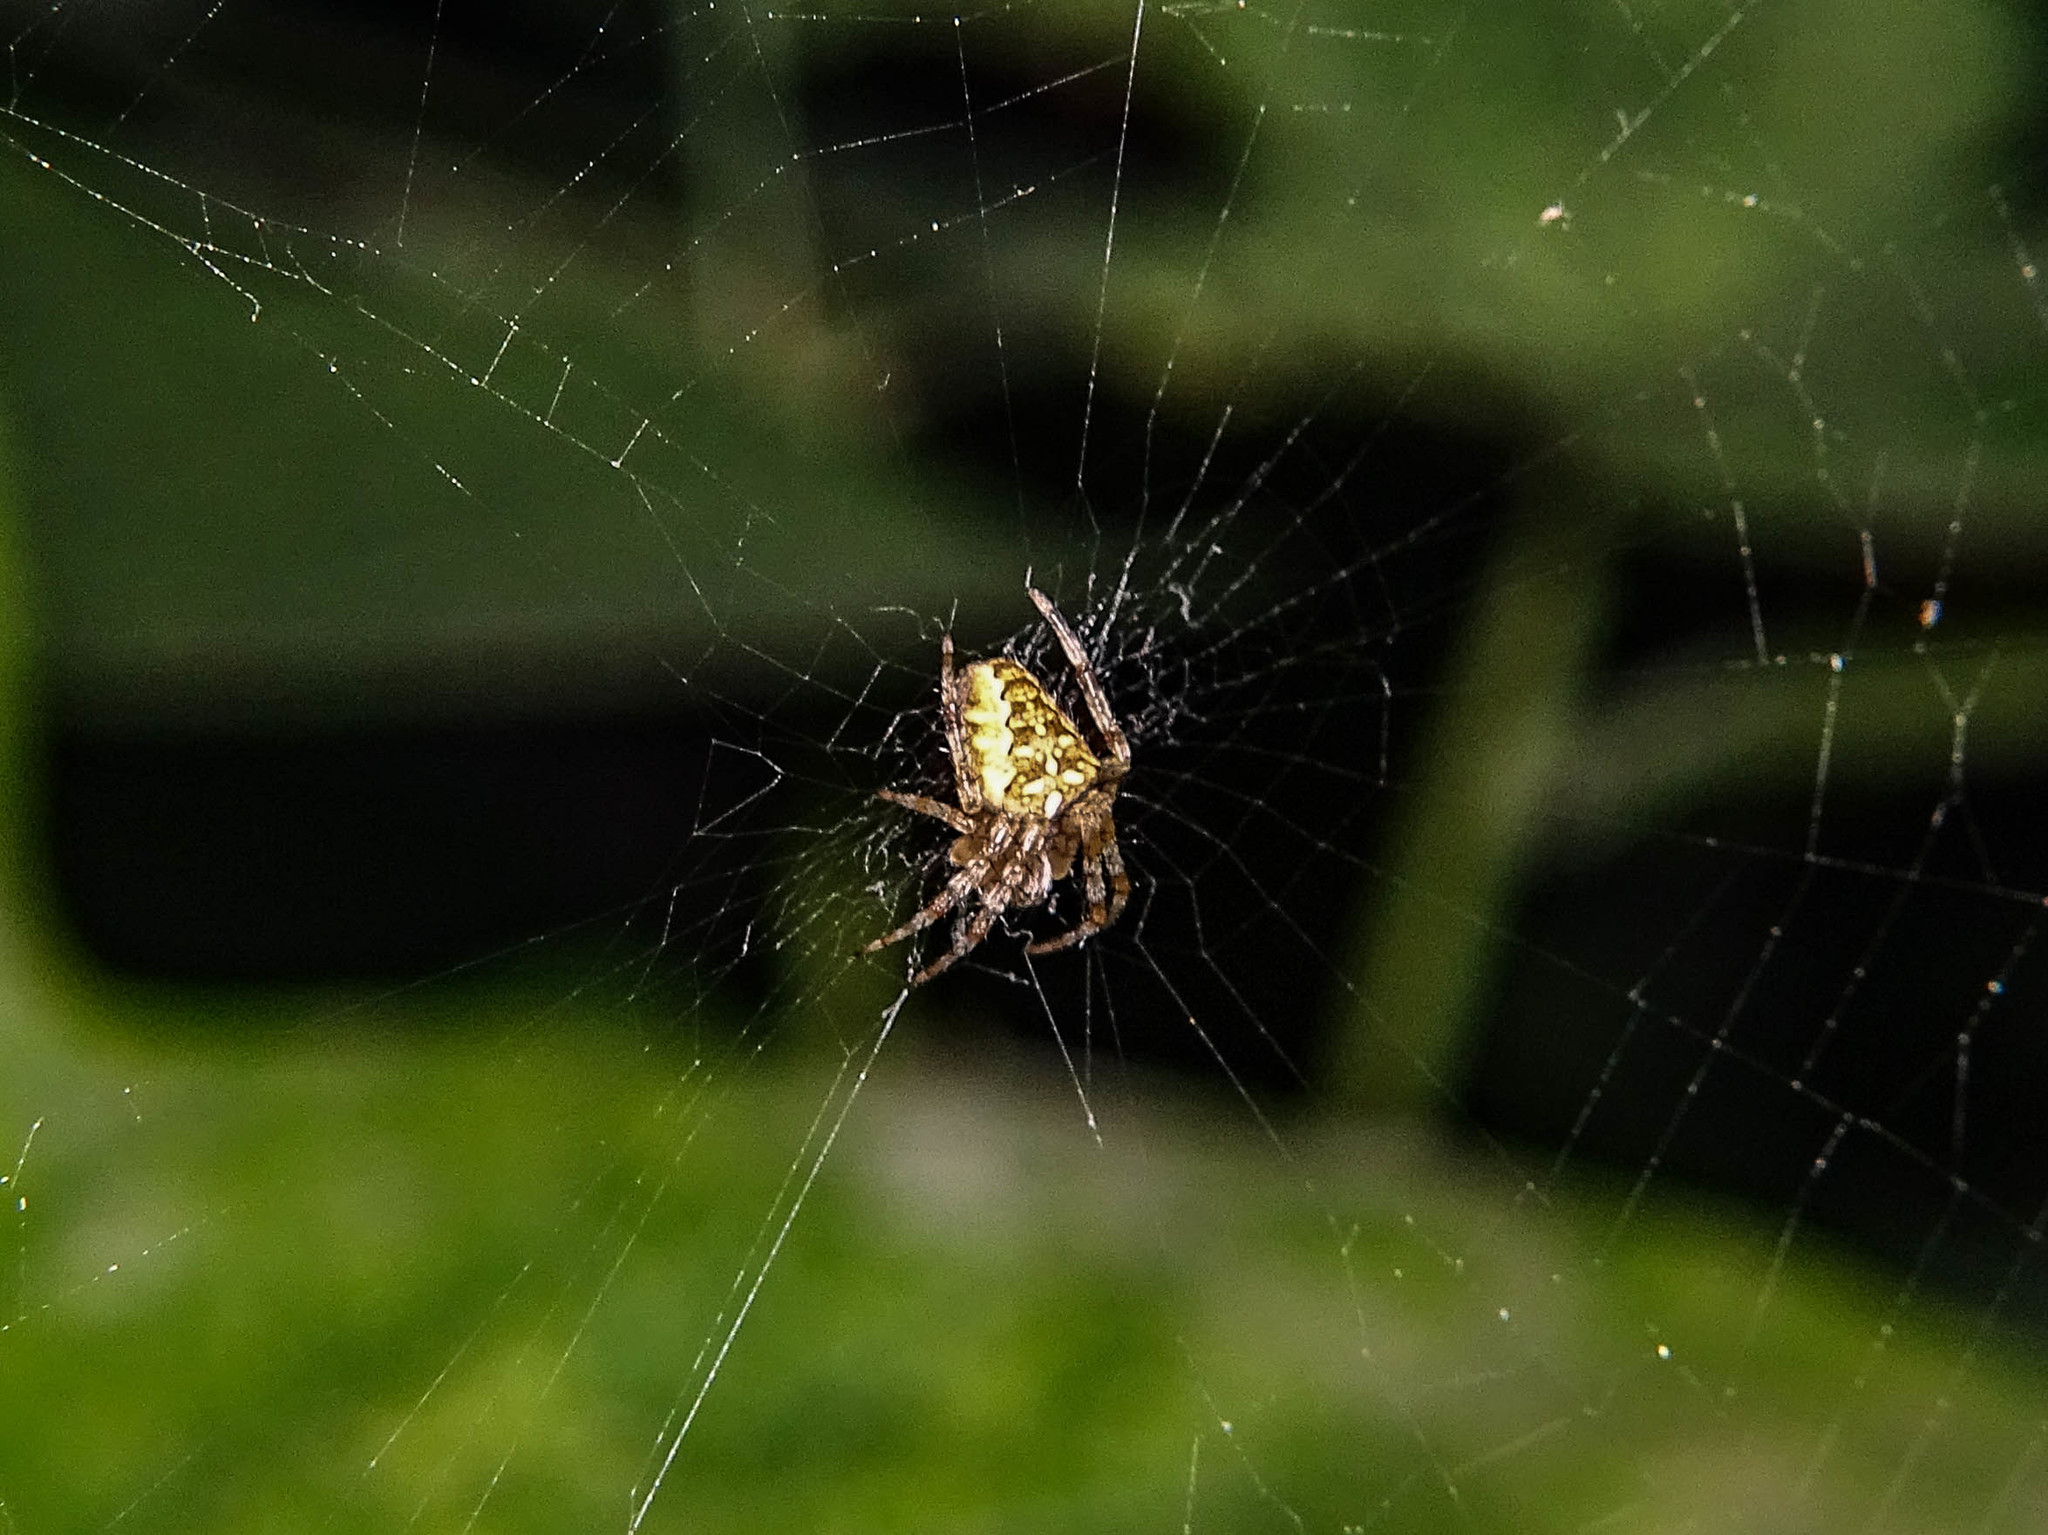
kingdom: Animalia
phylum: Arthropoda
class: Arachnida
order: Araneae
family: Araneidae
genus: Araneus
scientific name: Araneus diadematus
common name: Cross orbweaver
